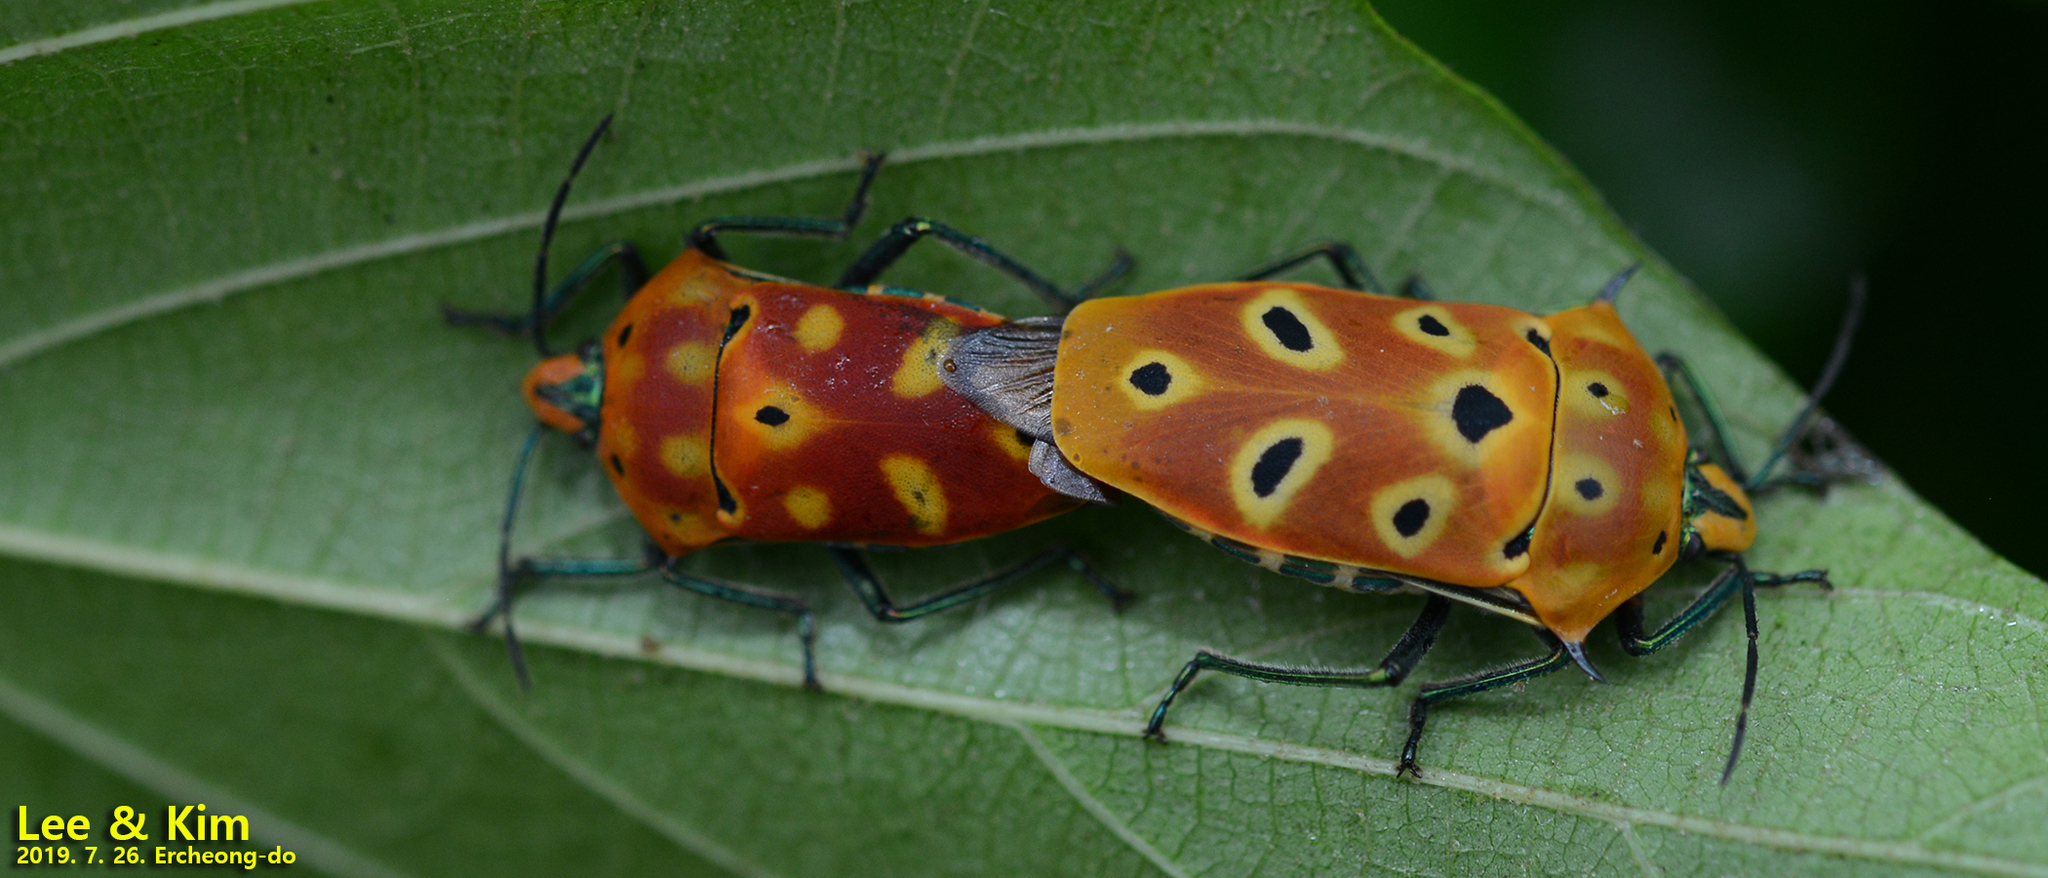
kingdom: Animalia
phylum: Arthropoda
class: Insecta
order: Hemiptera
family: Scutelleridae
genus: Cantao
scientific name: Cantao ocellatus
